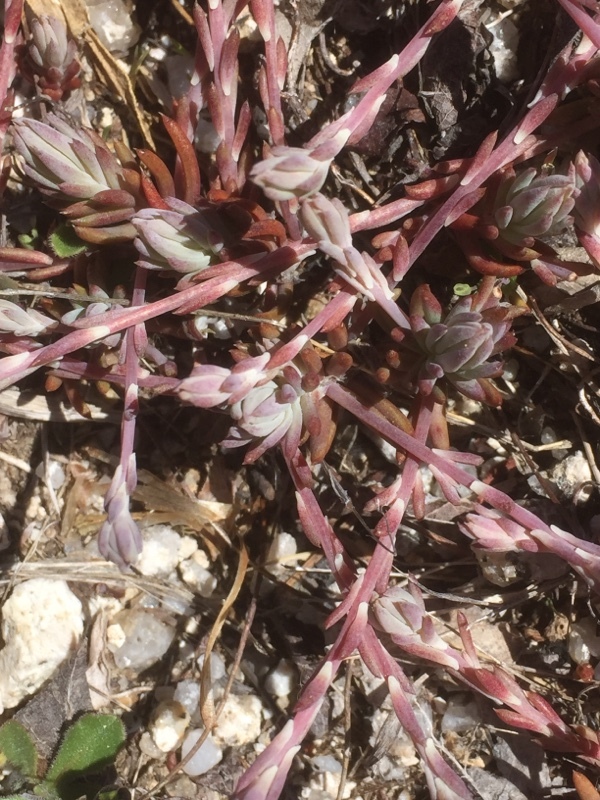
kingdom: Plantae
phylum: Tracheophyta
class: Magnoliopsida
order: Saxifragales
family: Crassulaceae
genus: Petrosedum
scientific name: Petrosedum pruinatum
